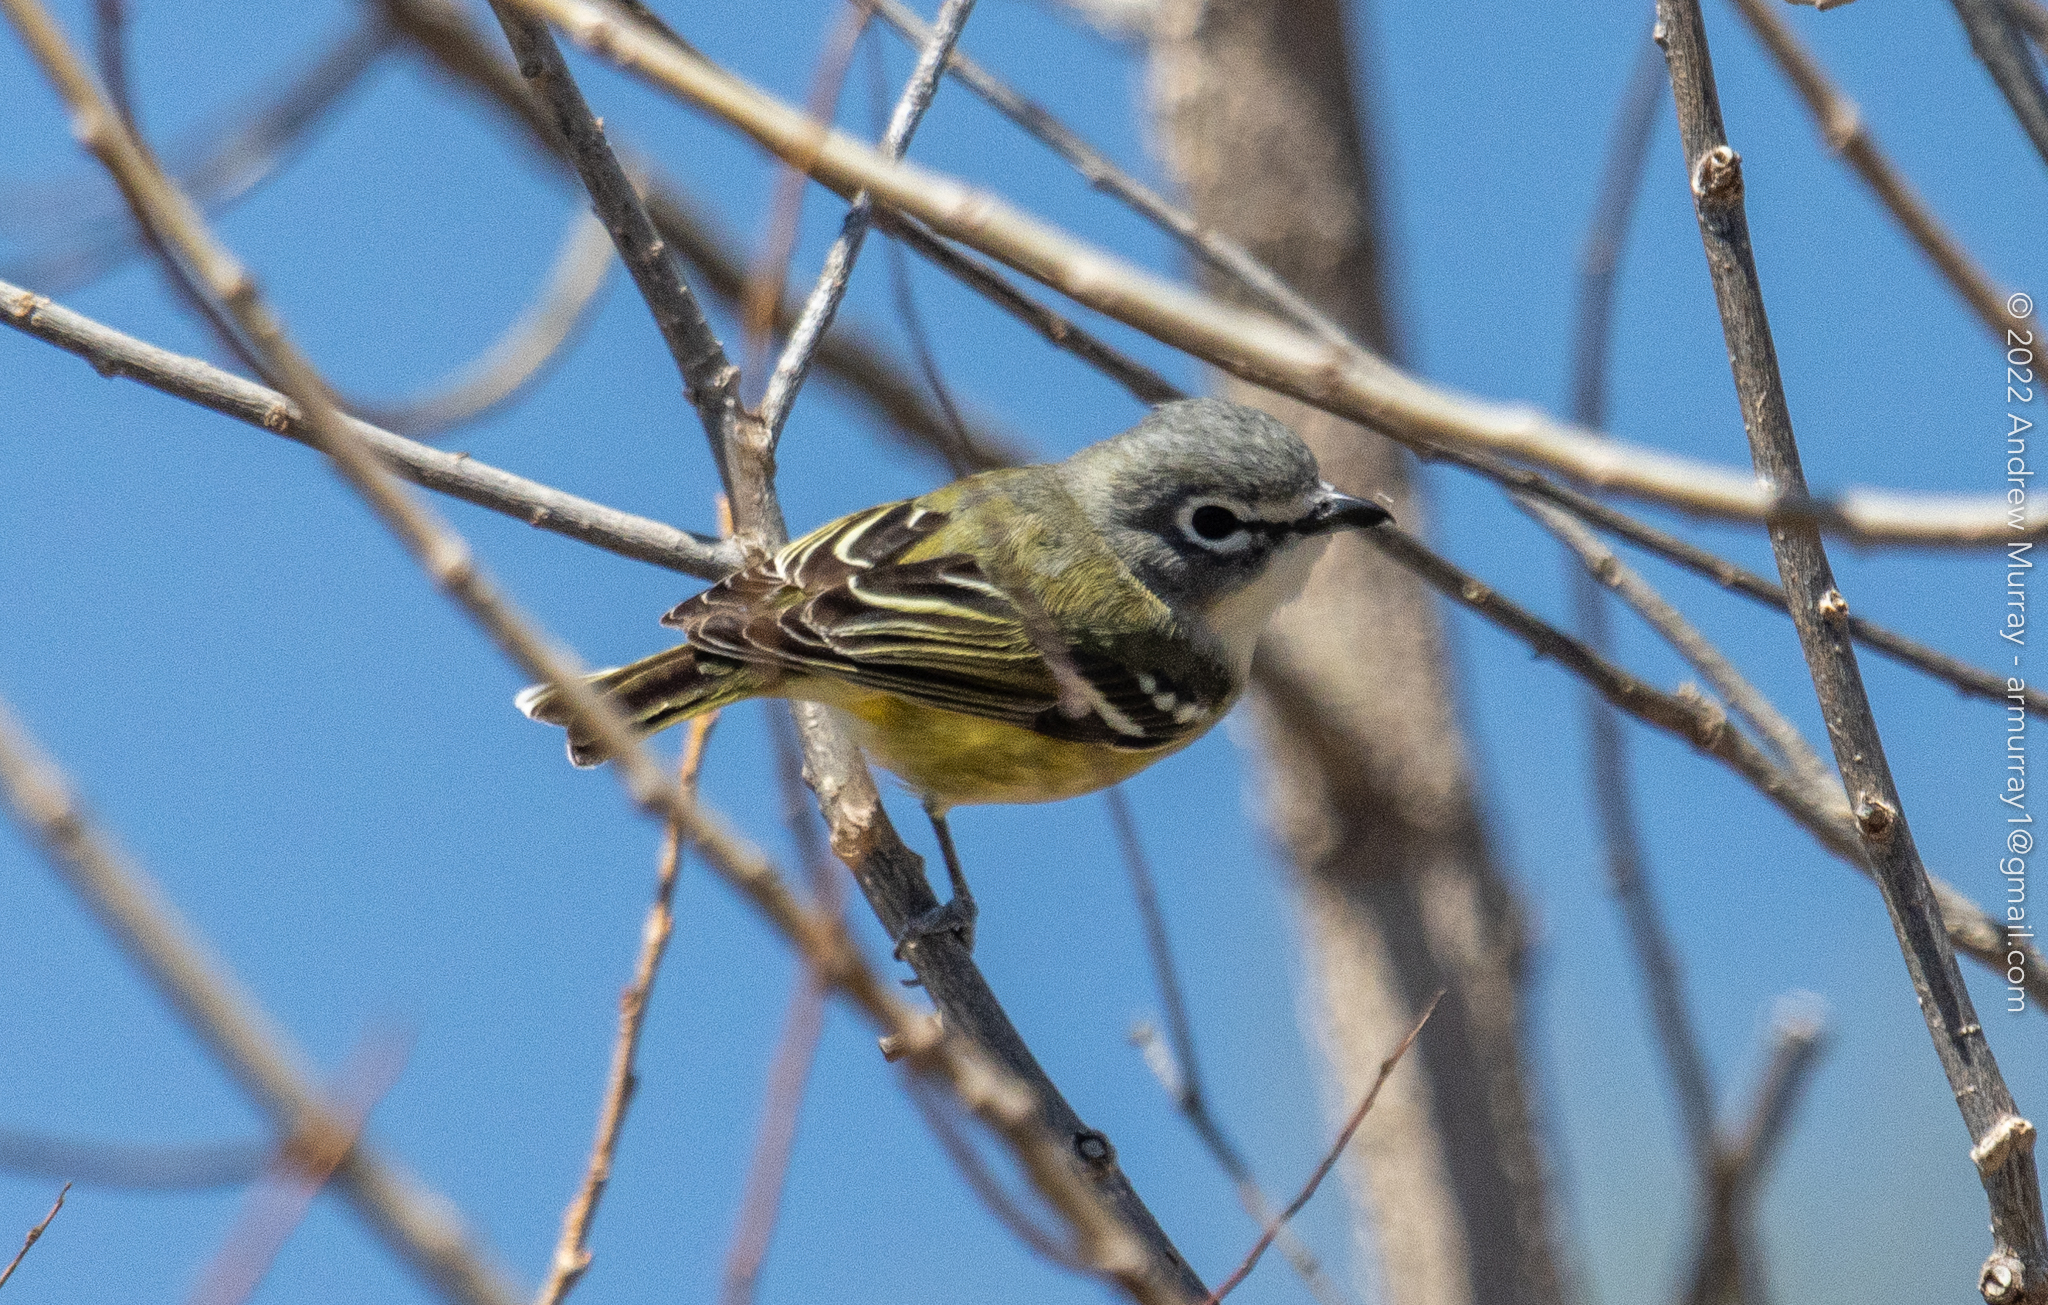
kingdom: Animalia
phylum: Chordata
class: Aves
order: Passeriformes
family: Vireonidae
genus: Vireo
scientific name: Vireo solitarius
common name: Blue-headed vireo
